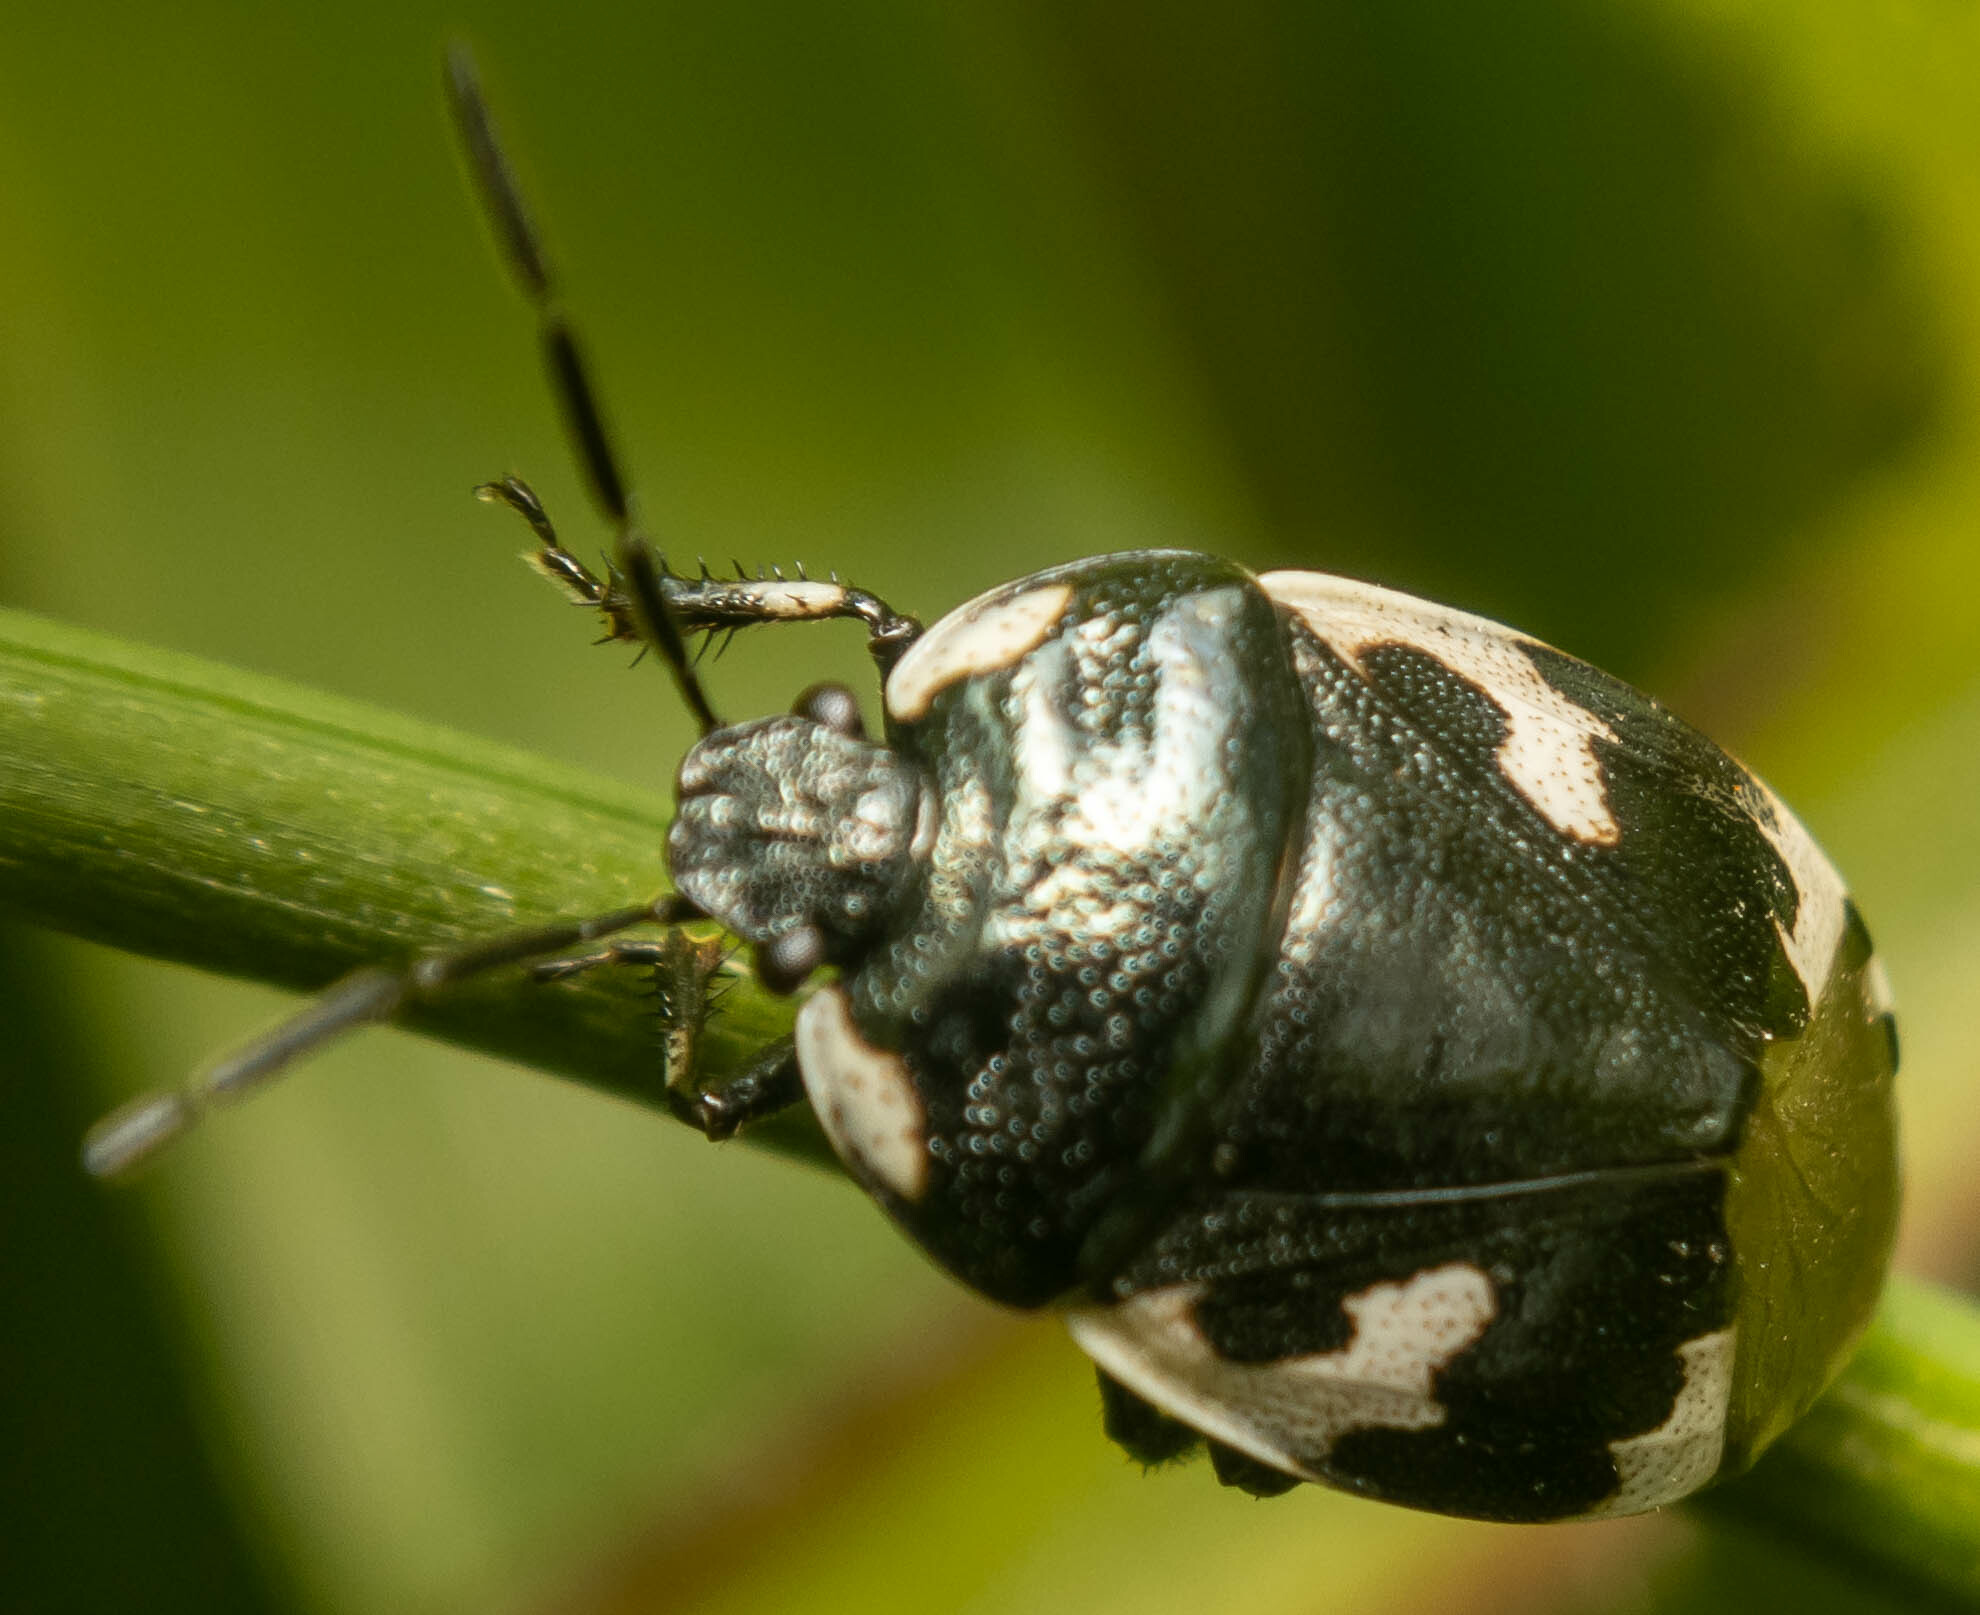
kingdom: Animalia
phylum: Arthropoda
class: Insecta
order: Hemiptera
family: Cydnidae
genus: Tritomegas
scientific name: Tritomegas bicolor
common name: Pied shieldbug
